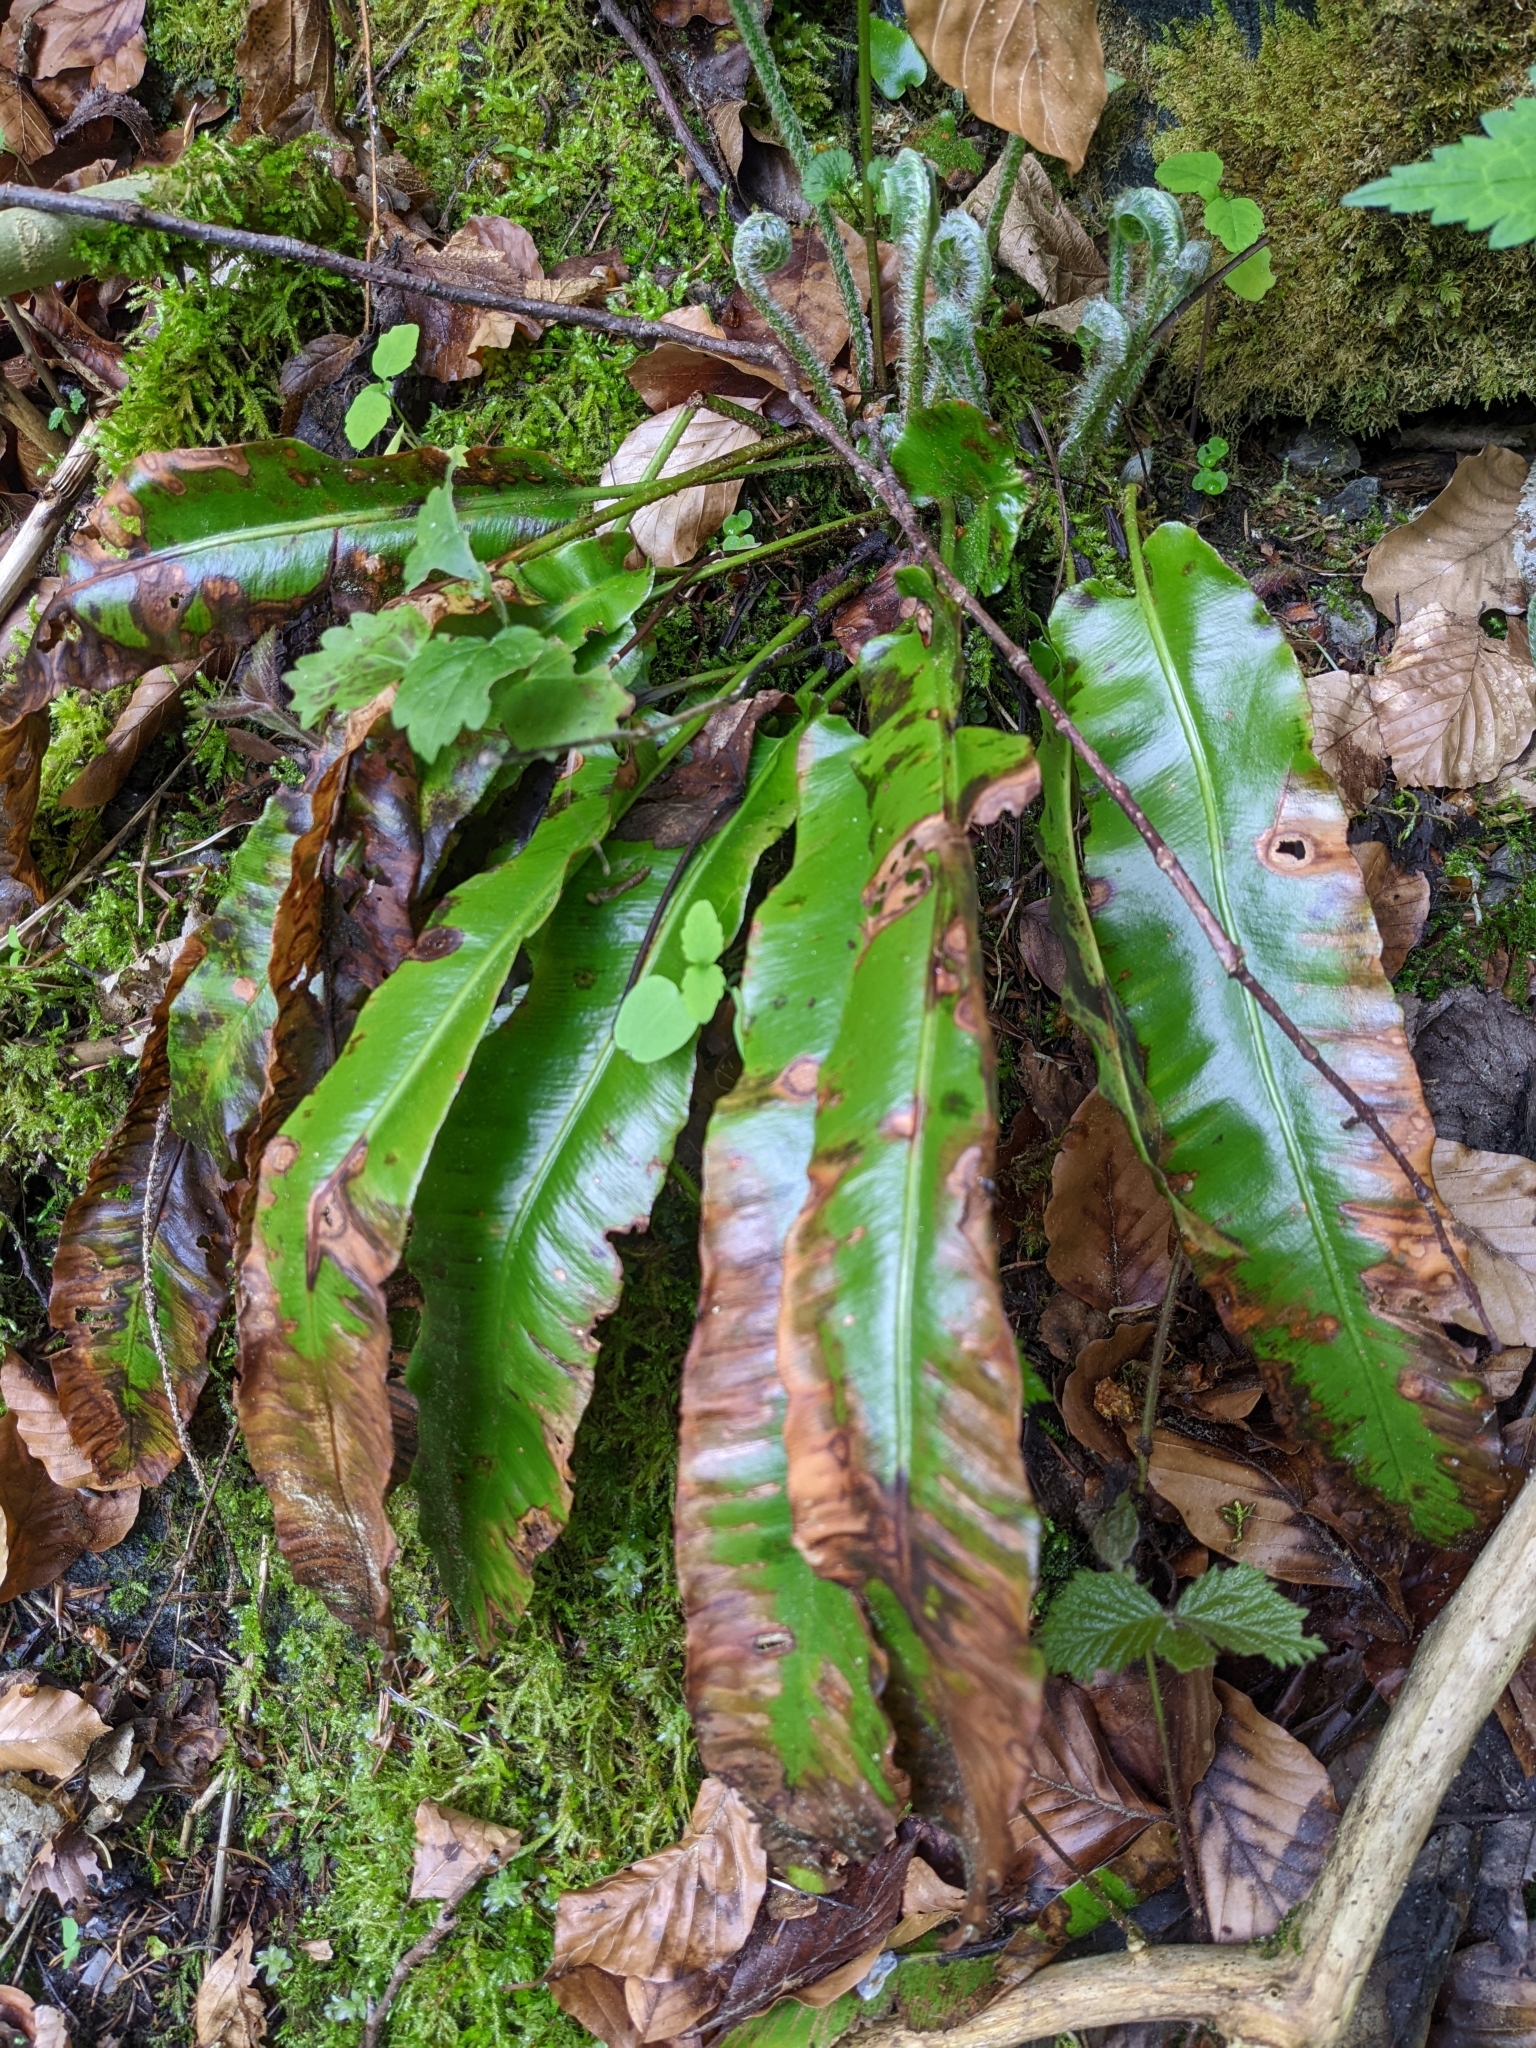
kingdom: Plantae
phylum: Tracheophyta
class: Polypodiopsida
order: Polypodiales
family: Aspleniaceae
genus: Asplenium
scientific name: Asplenium scolopendrium
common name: Hart's-tongue fern
